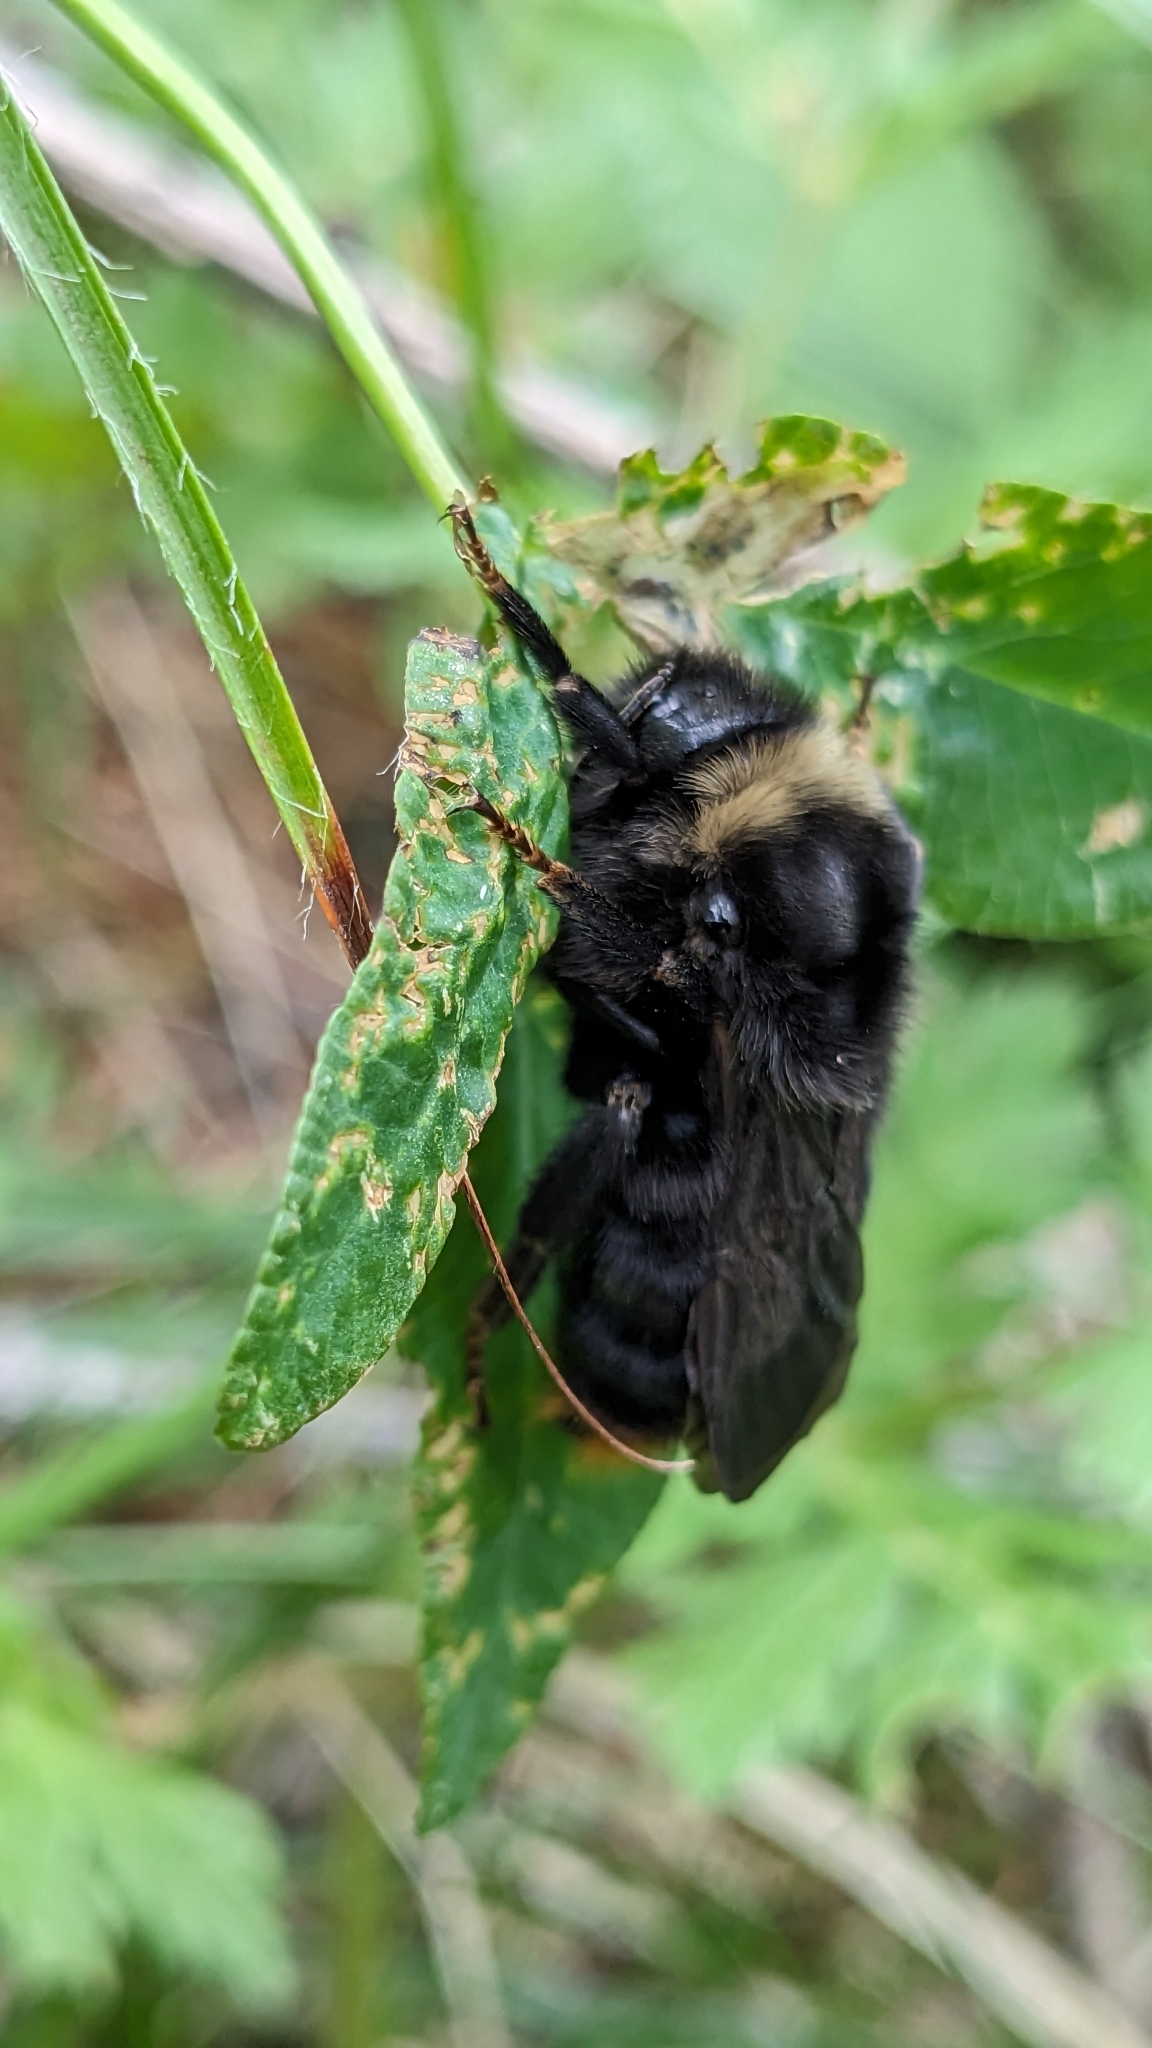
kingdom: Animalia
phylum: Arthropoda
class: Insecta
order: Hymenoptera
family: Apidae
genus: Bombus
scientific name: Bombus rupestris
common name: Hill cuckoo-bee
